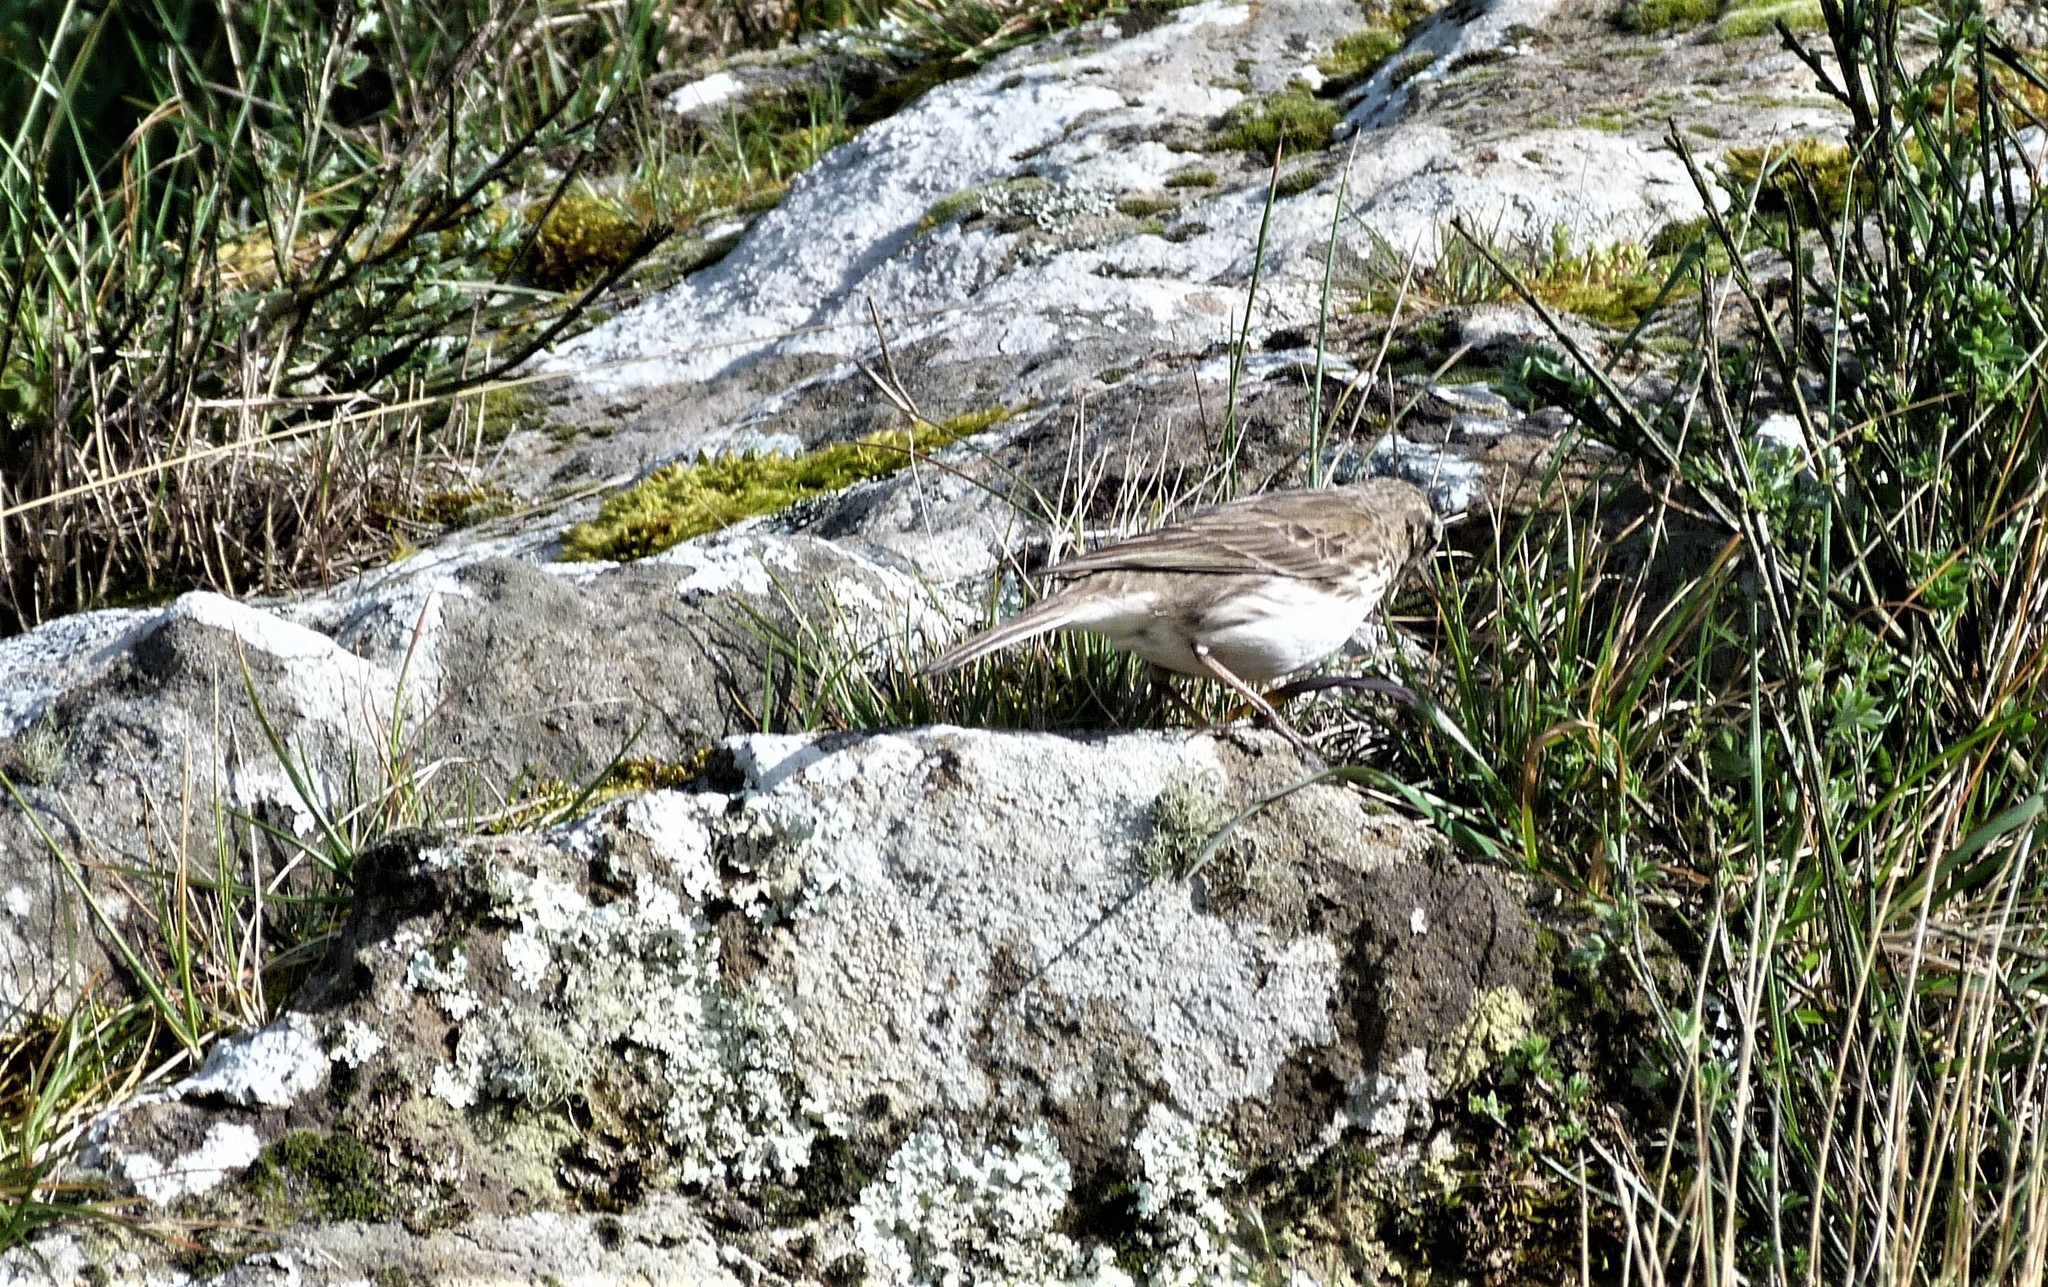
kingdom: Animalia
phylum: Chordata
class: Aves
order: Passeriformes
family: Motacillidae
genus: Anthus
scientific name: Anthus novaeseelandiae
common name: New zealand pipit
